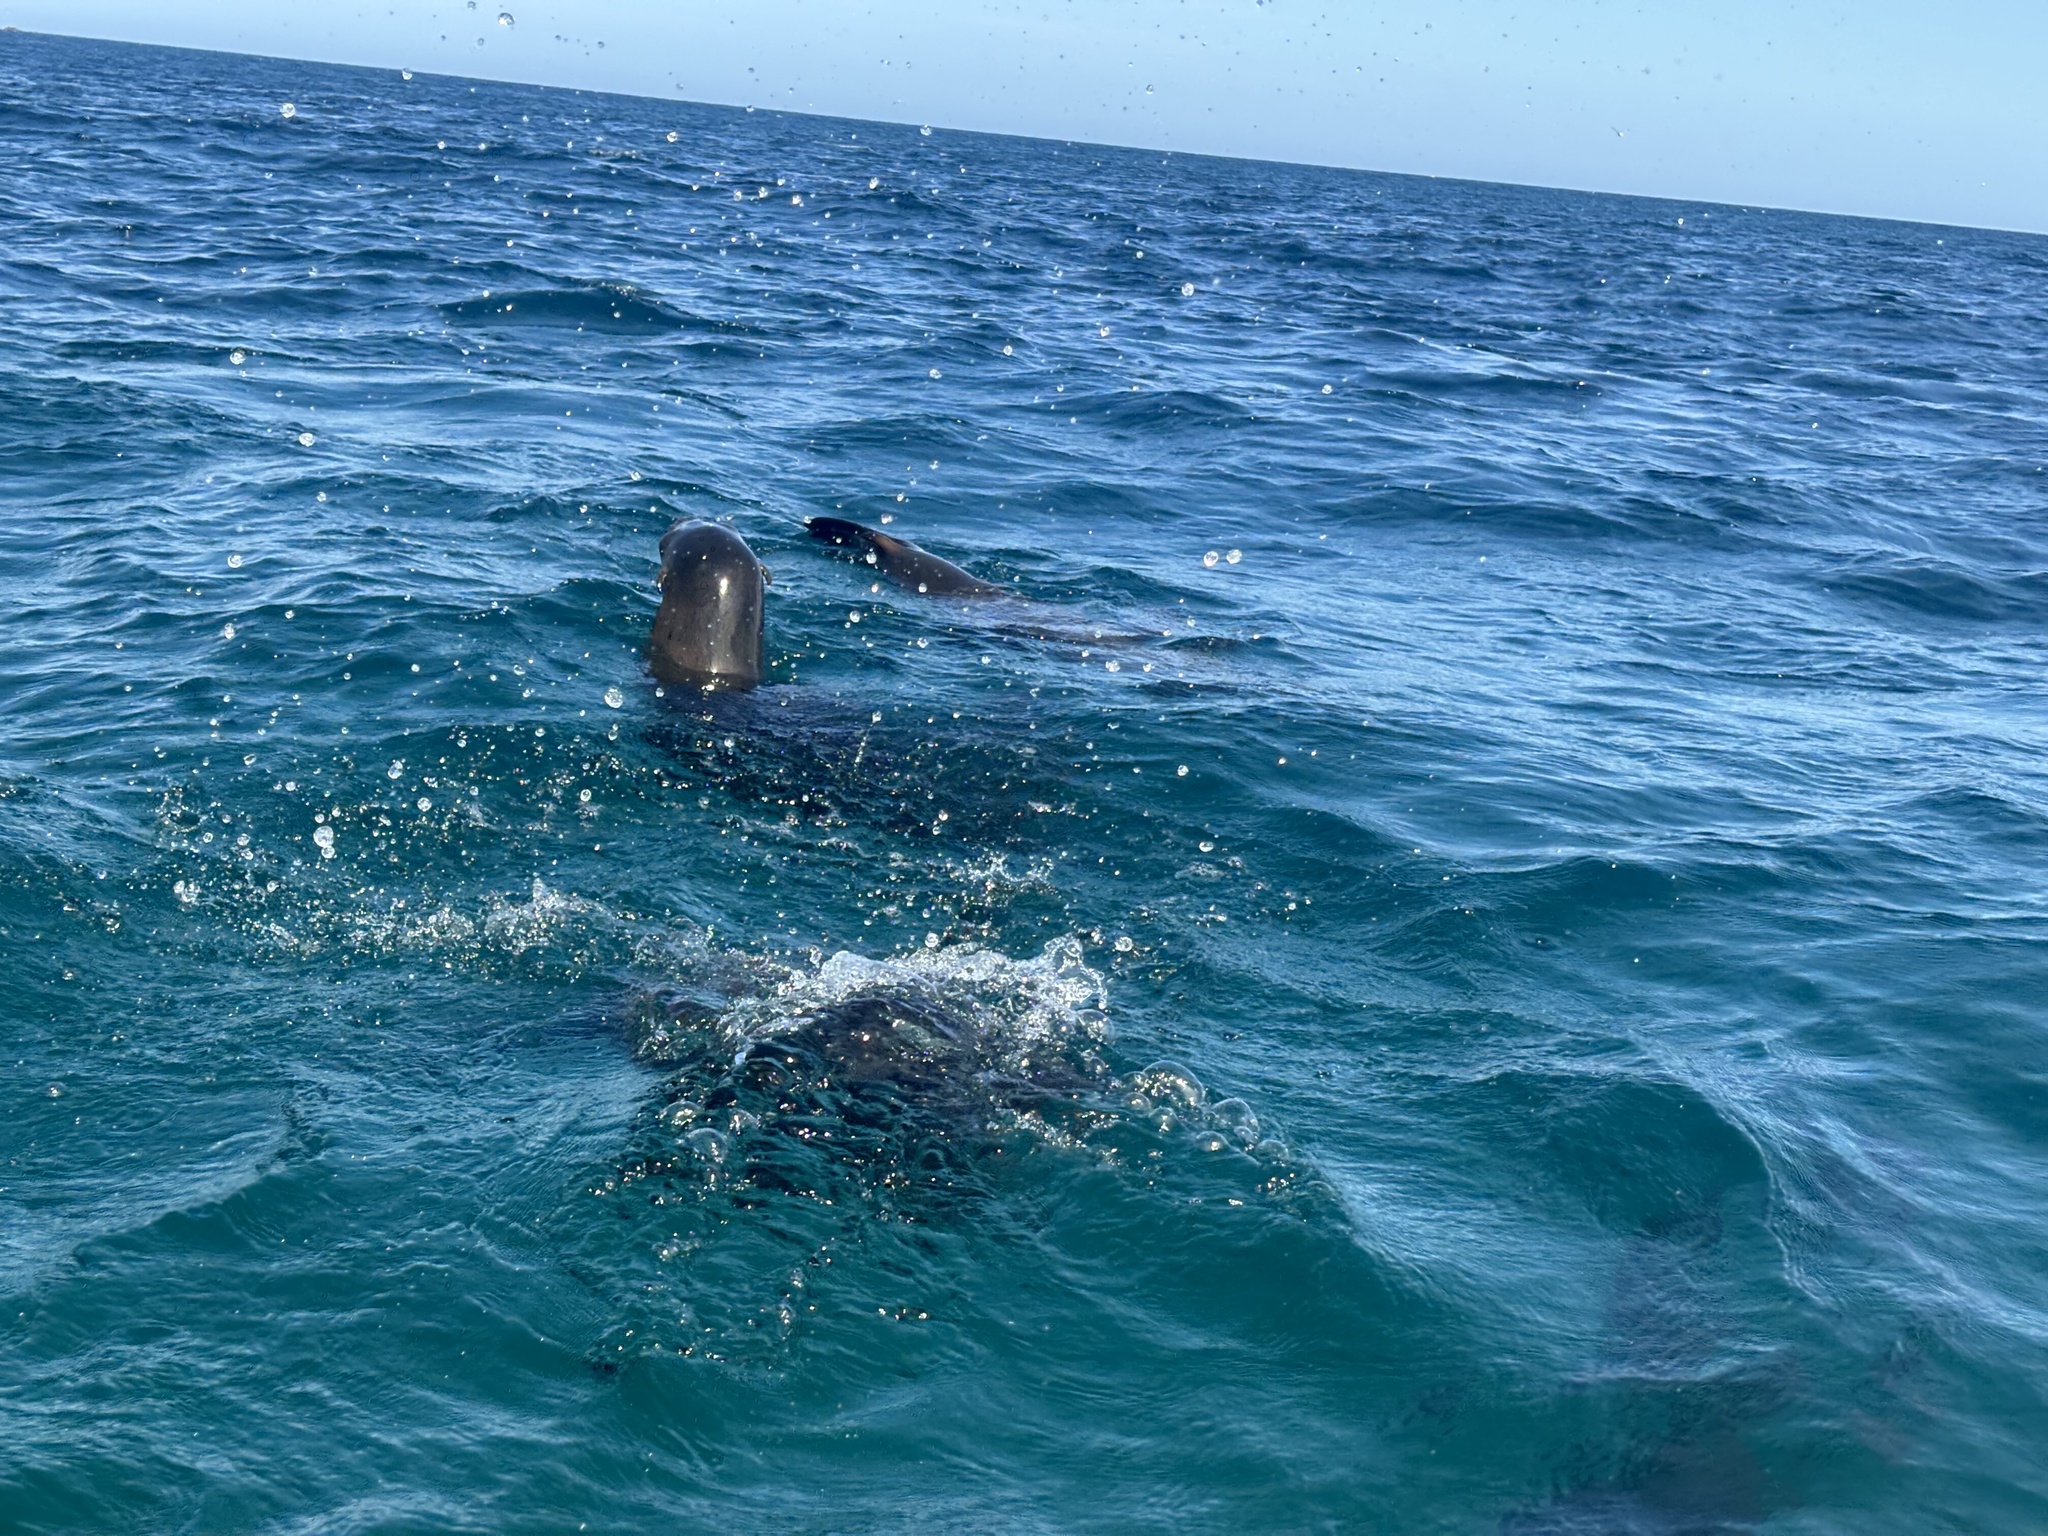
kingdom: Animalia
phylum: Chordata
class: Mammalia
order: Carnivora
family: Otariidae
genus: Zalophus
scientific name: Zalophus californianus
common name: California sea lion
